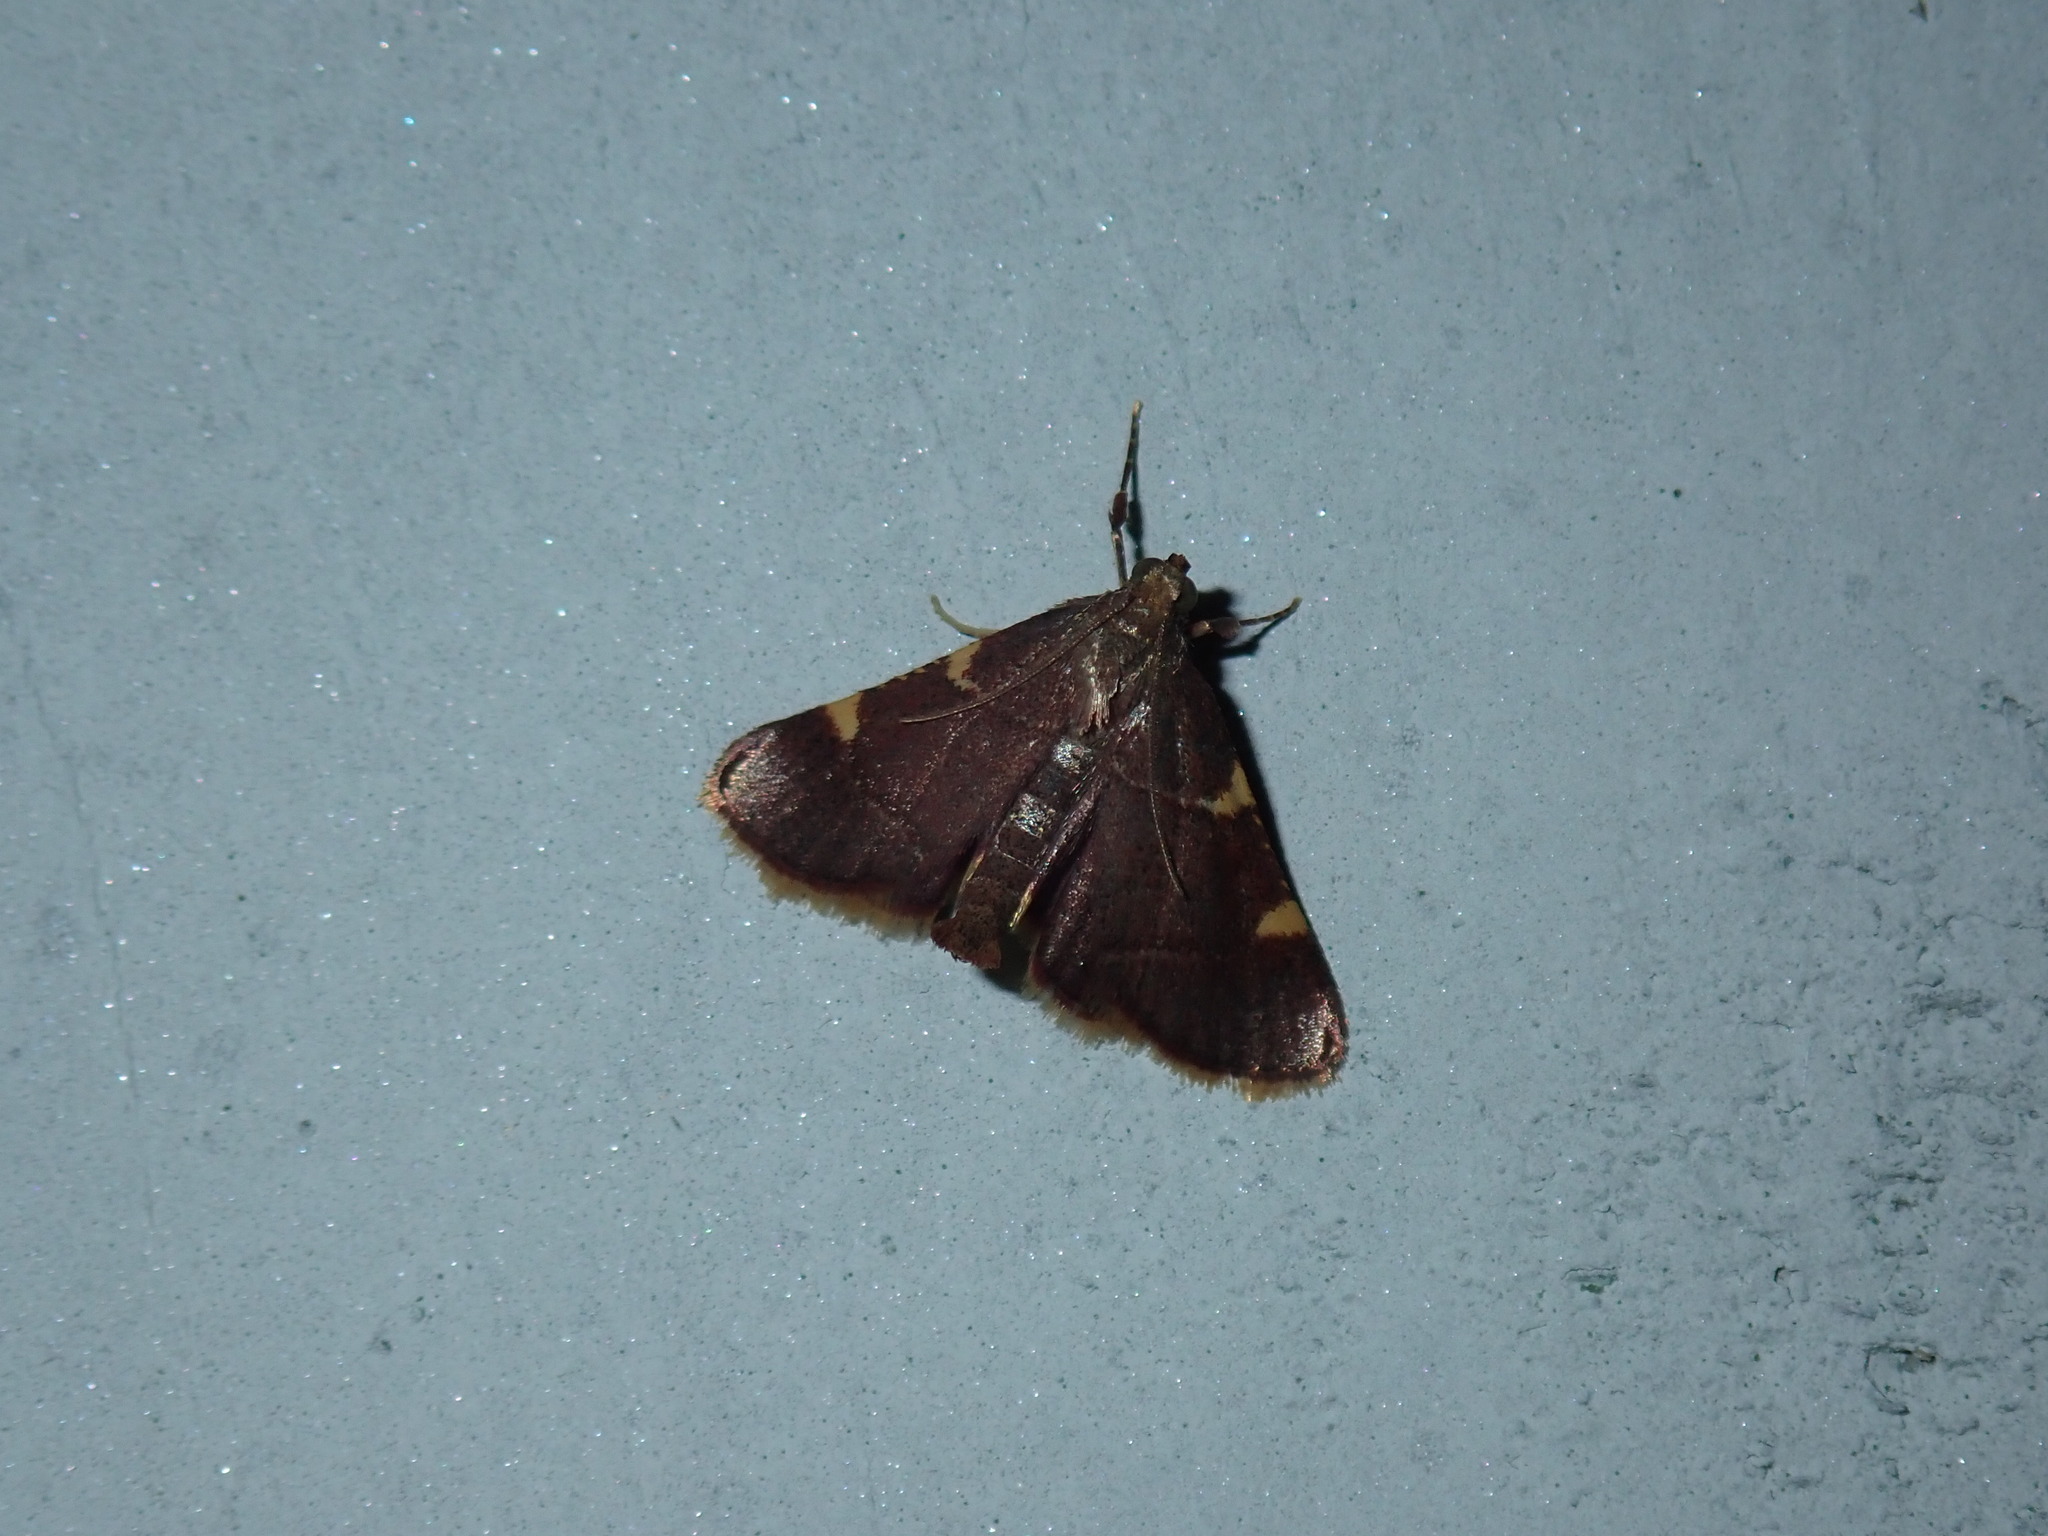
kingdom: Animalia
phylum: Arthropoda
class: Insecta
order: Lepidoptera
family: Pyralidae
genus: Hypsopygia
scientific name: Hypsopygia olinalis
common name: Yellow-fringed dolichomia moth
